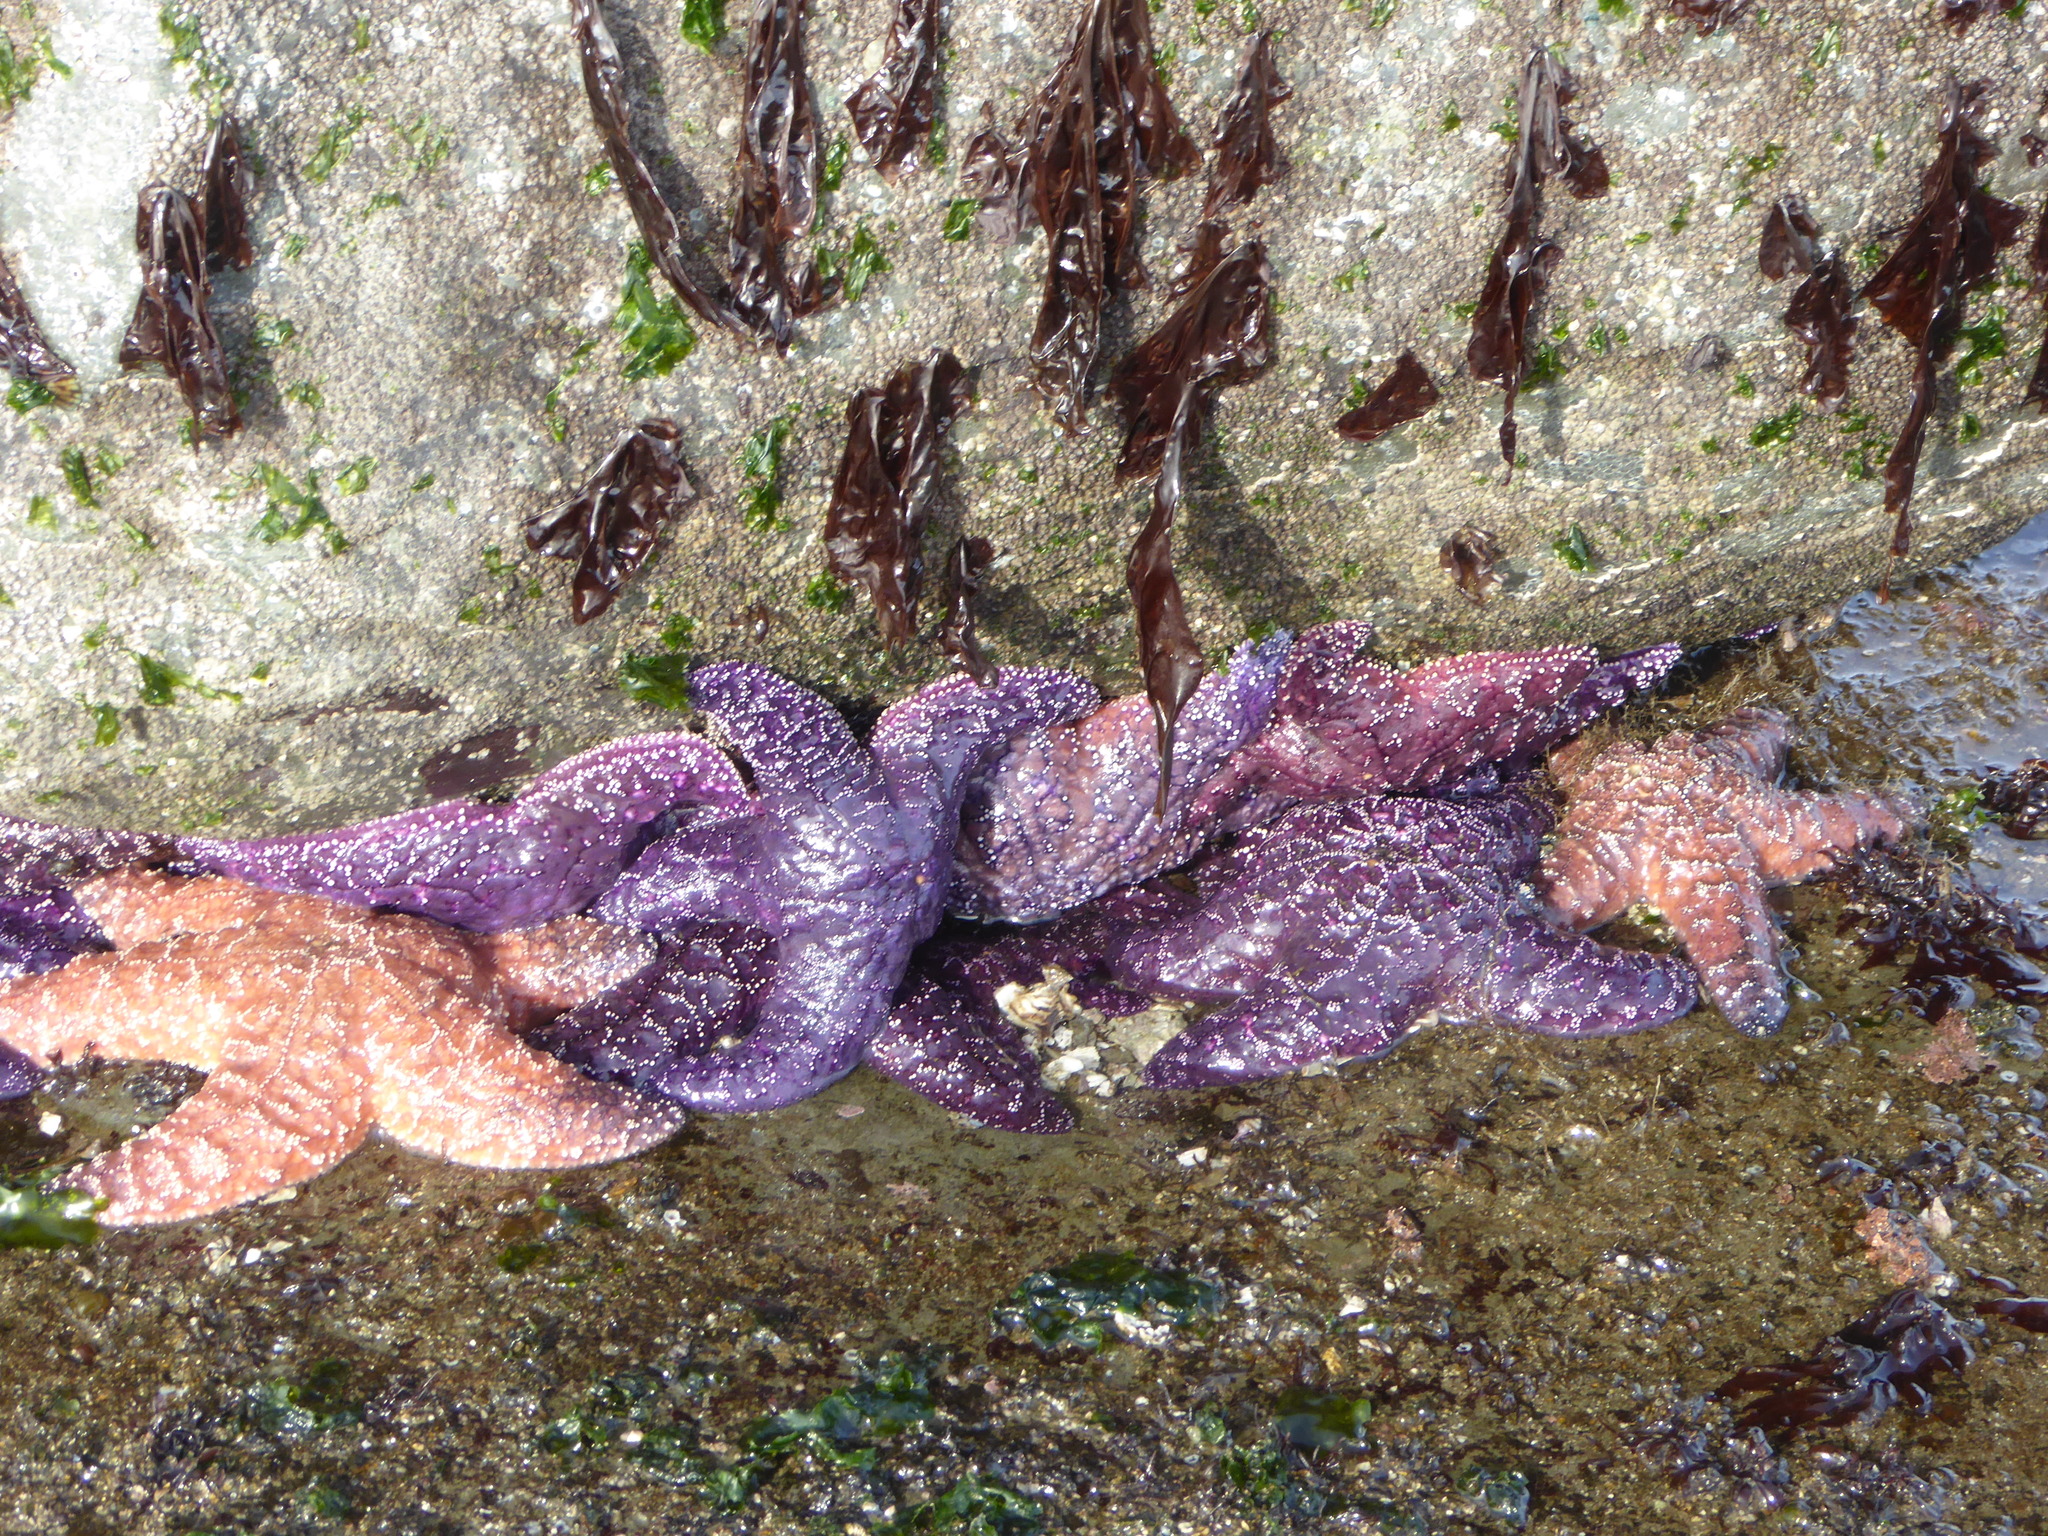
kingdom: Animalia
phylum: Echinodermata
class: Asteroidea
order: Forcipulatida
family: Asteriidae
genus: Pisaster
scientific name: Pisaster ochraceus
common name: Ochre stars
